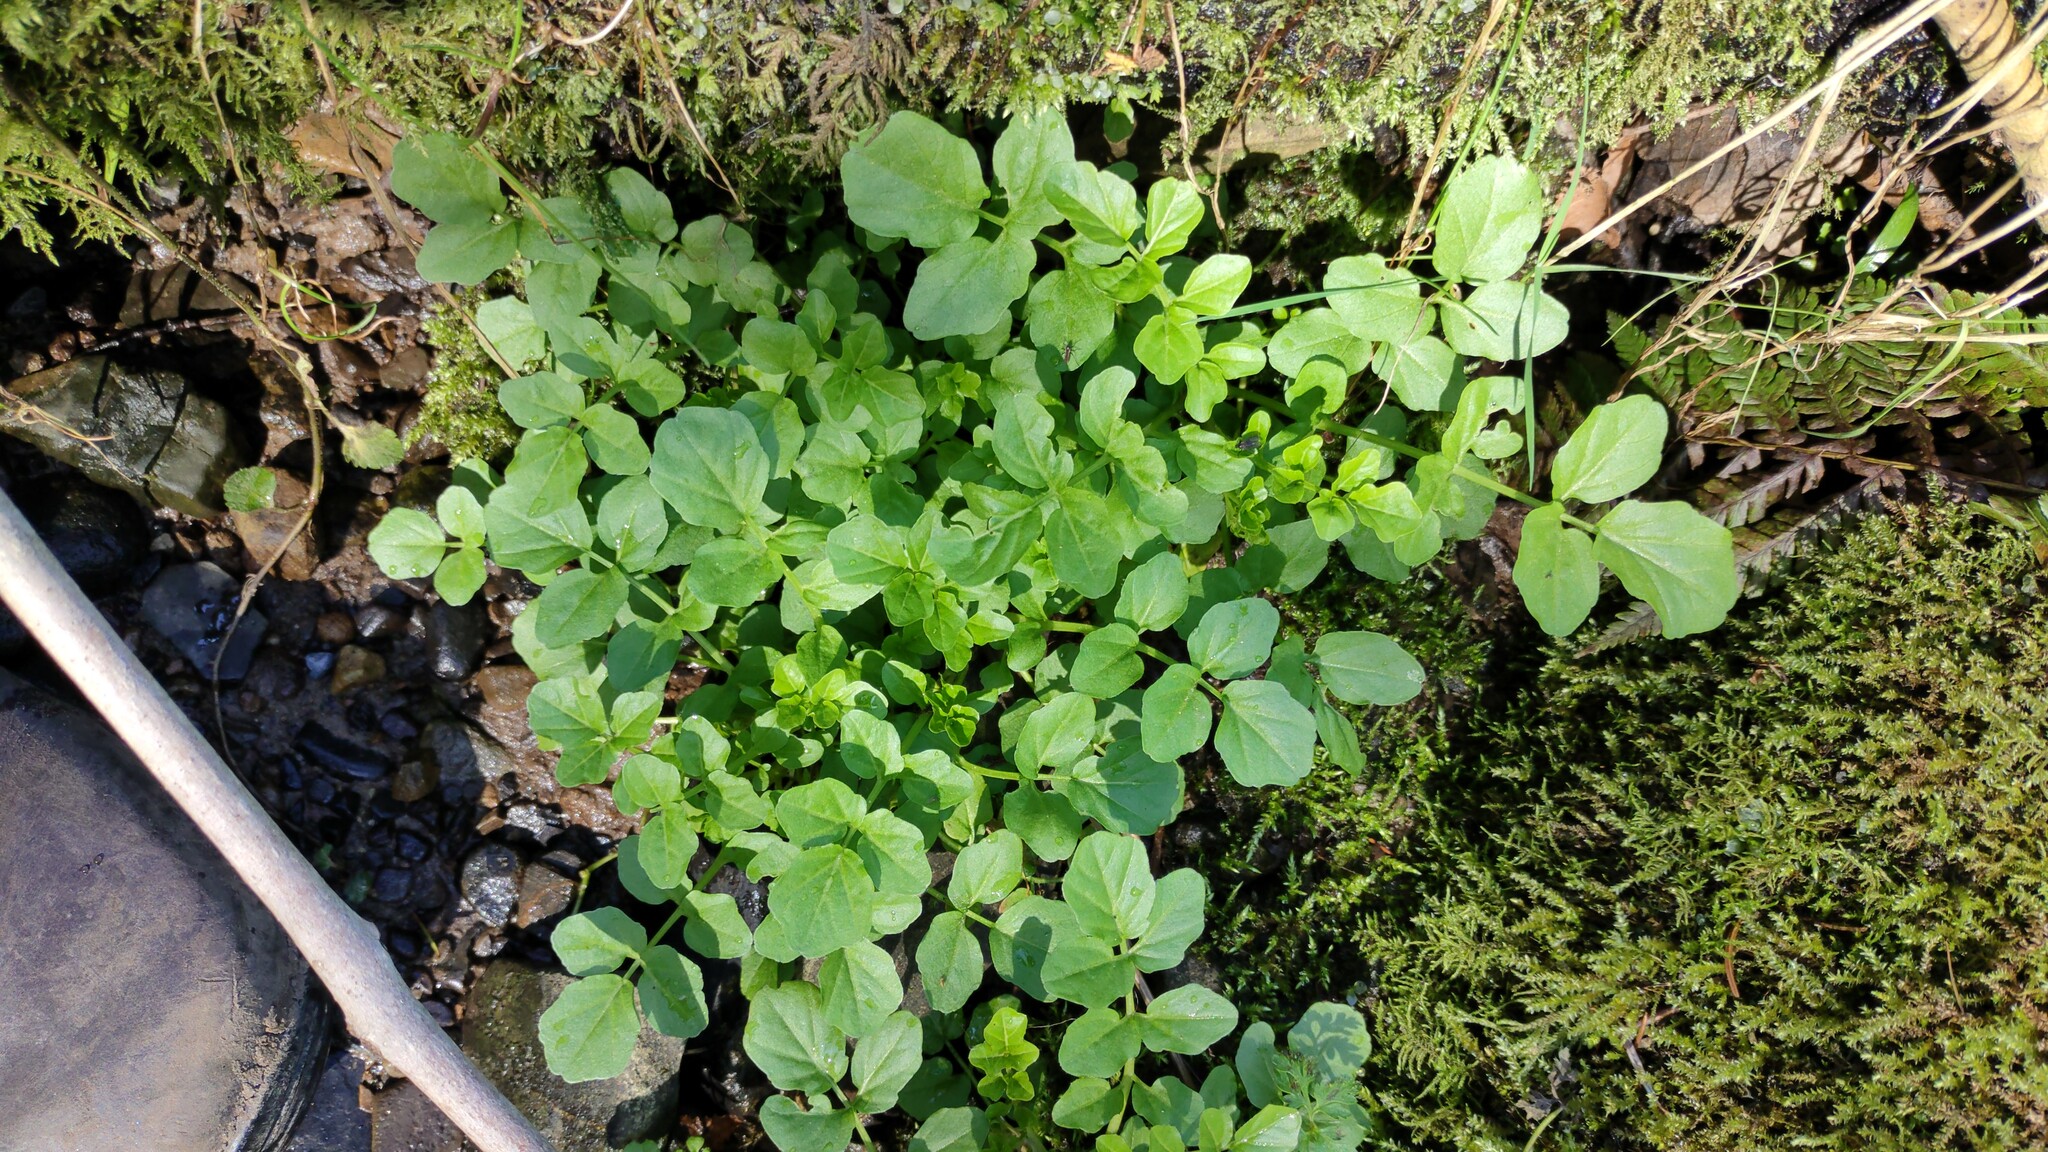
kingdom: Plantae
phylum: Tracheophyta
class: Magnoliopsida
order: Brassicales
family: Brassicaceae
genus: Cardamine
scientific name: Cardamine amara
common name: Large bitter-cress
